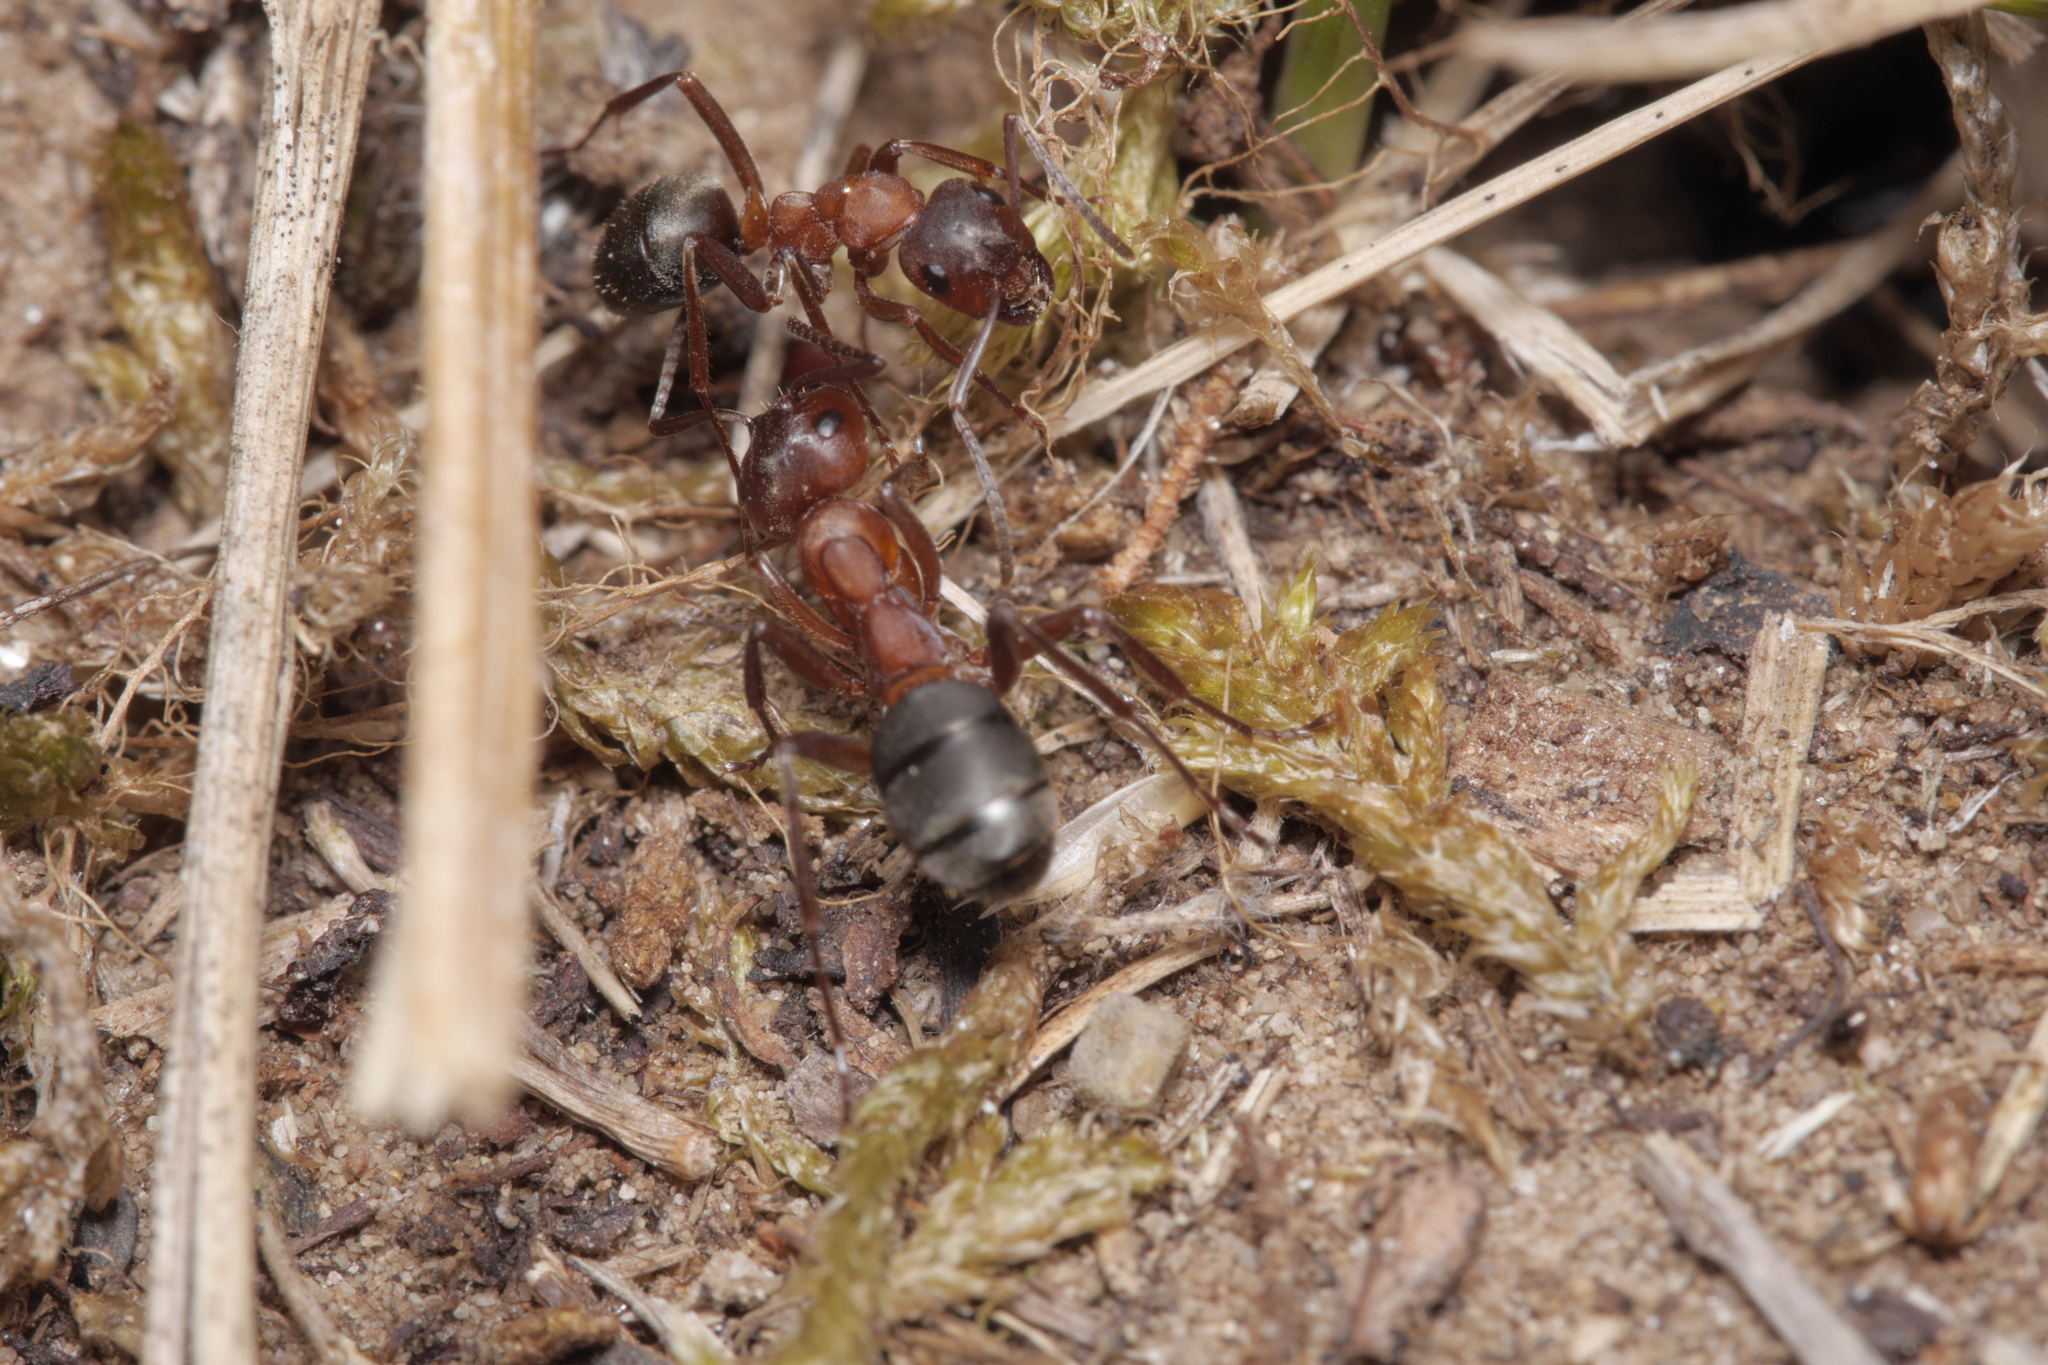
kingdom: Animalia
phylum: Arthropoda
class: Insecta
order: Hymenoptera
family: Formicidae
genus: Formica
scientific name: Formica sanguinea
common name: Blood-red ant
